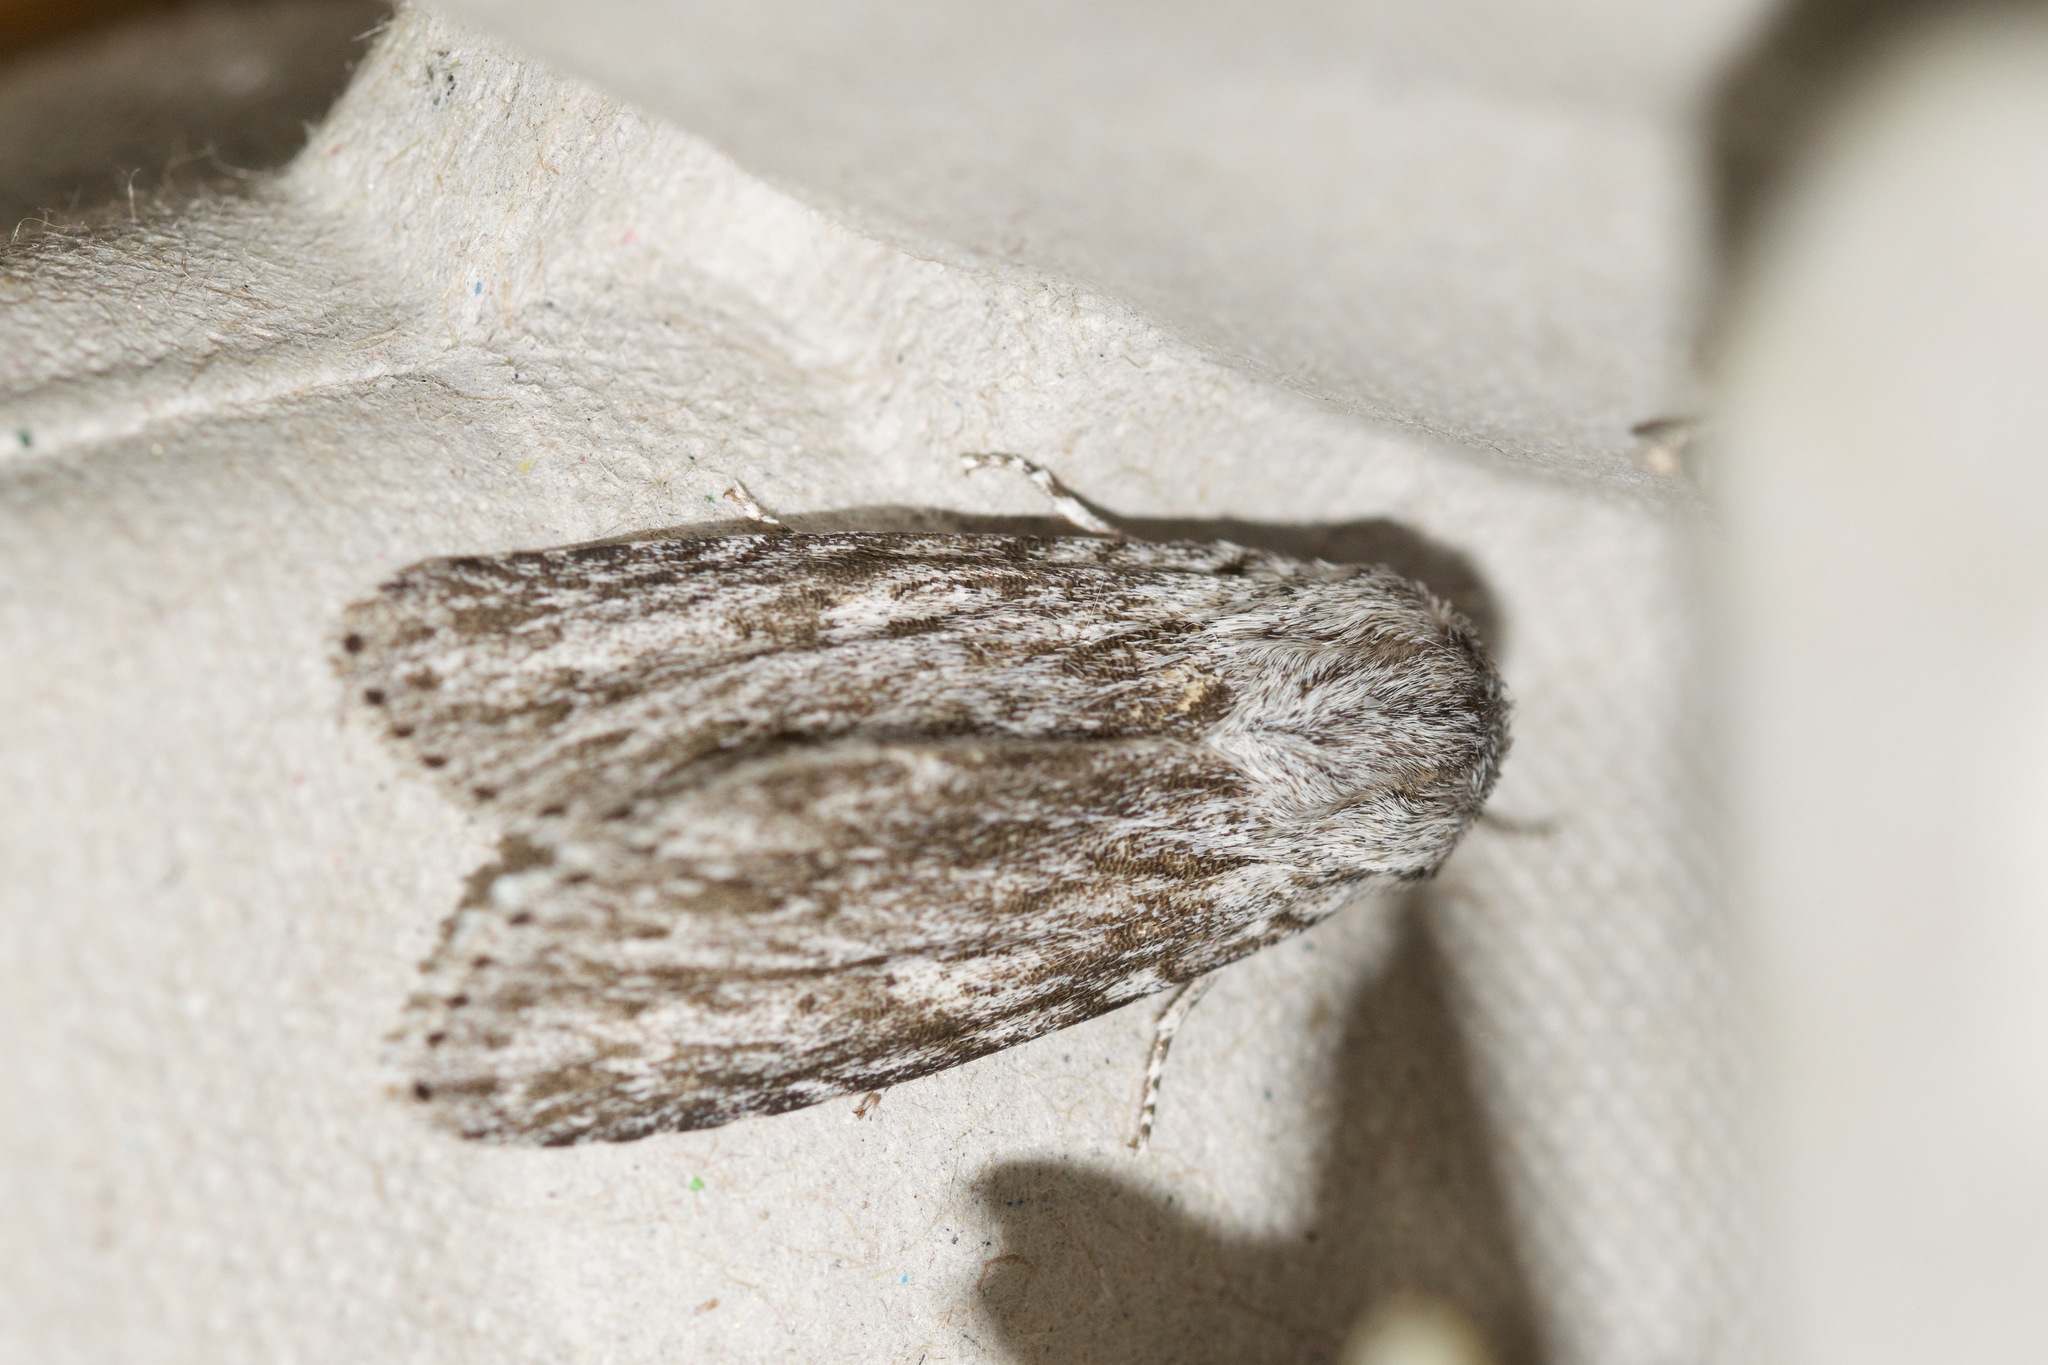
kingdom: Animalia
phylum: Arthropoda
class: Insecta
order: Lepidoptera
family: Noctuidae
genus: Acronicta
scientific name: Acronicta oblinita
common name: Smeared dagger
